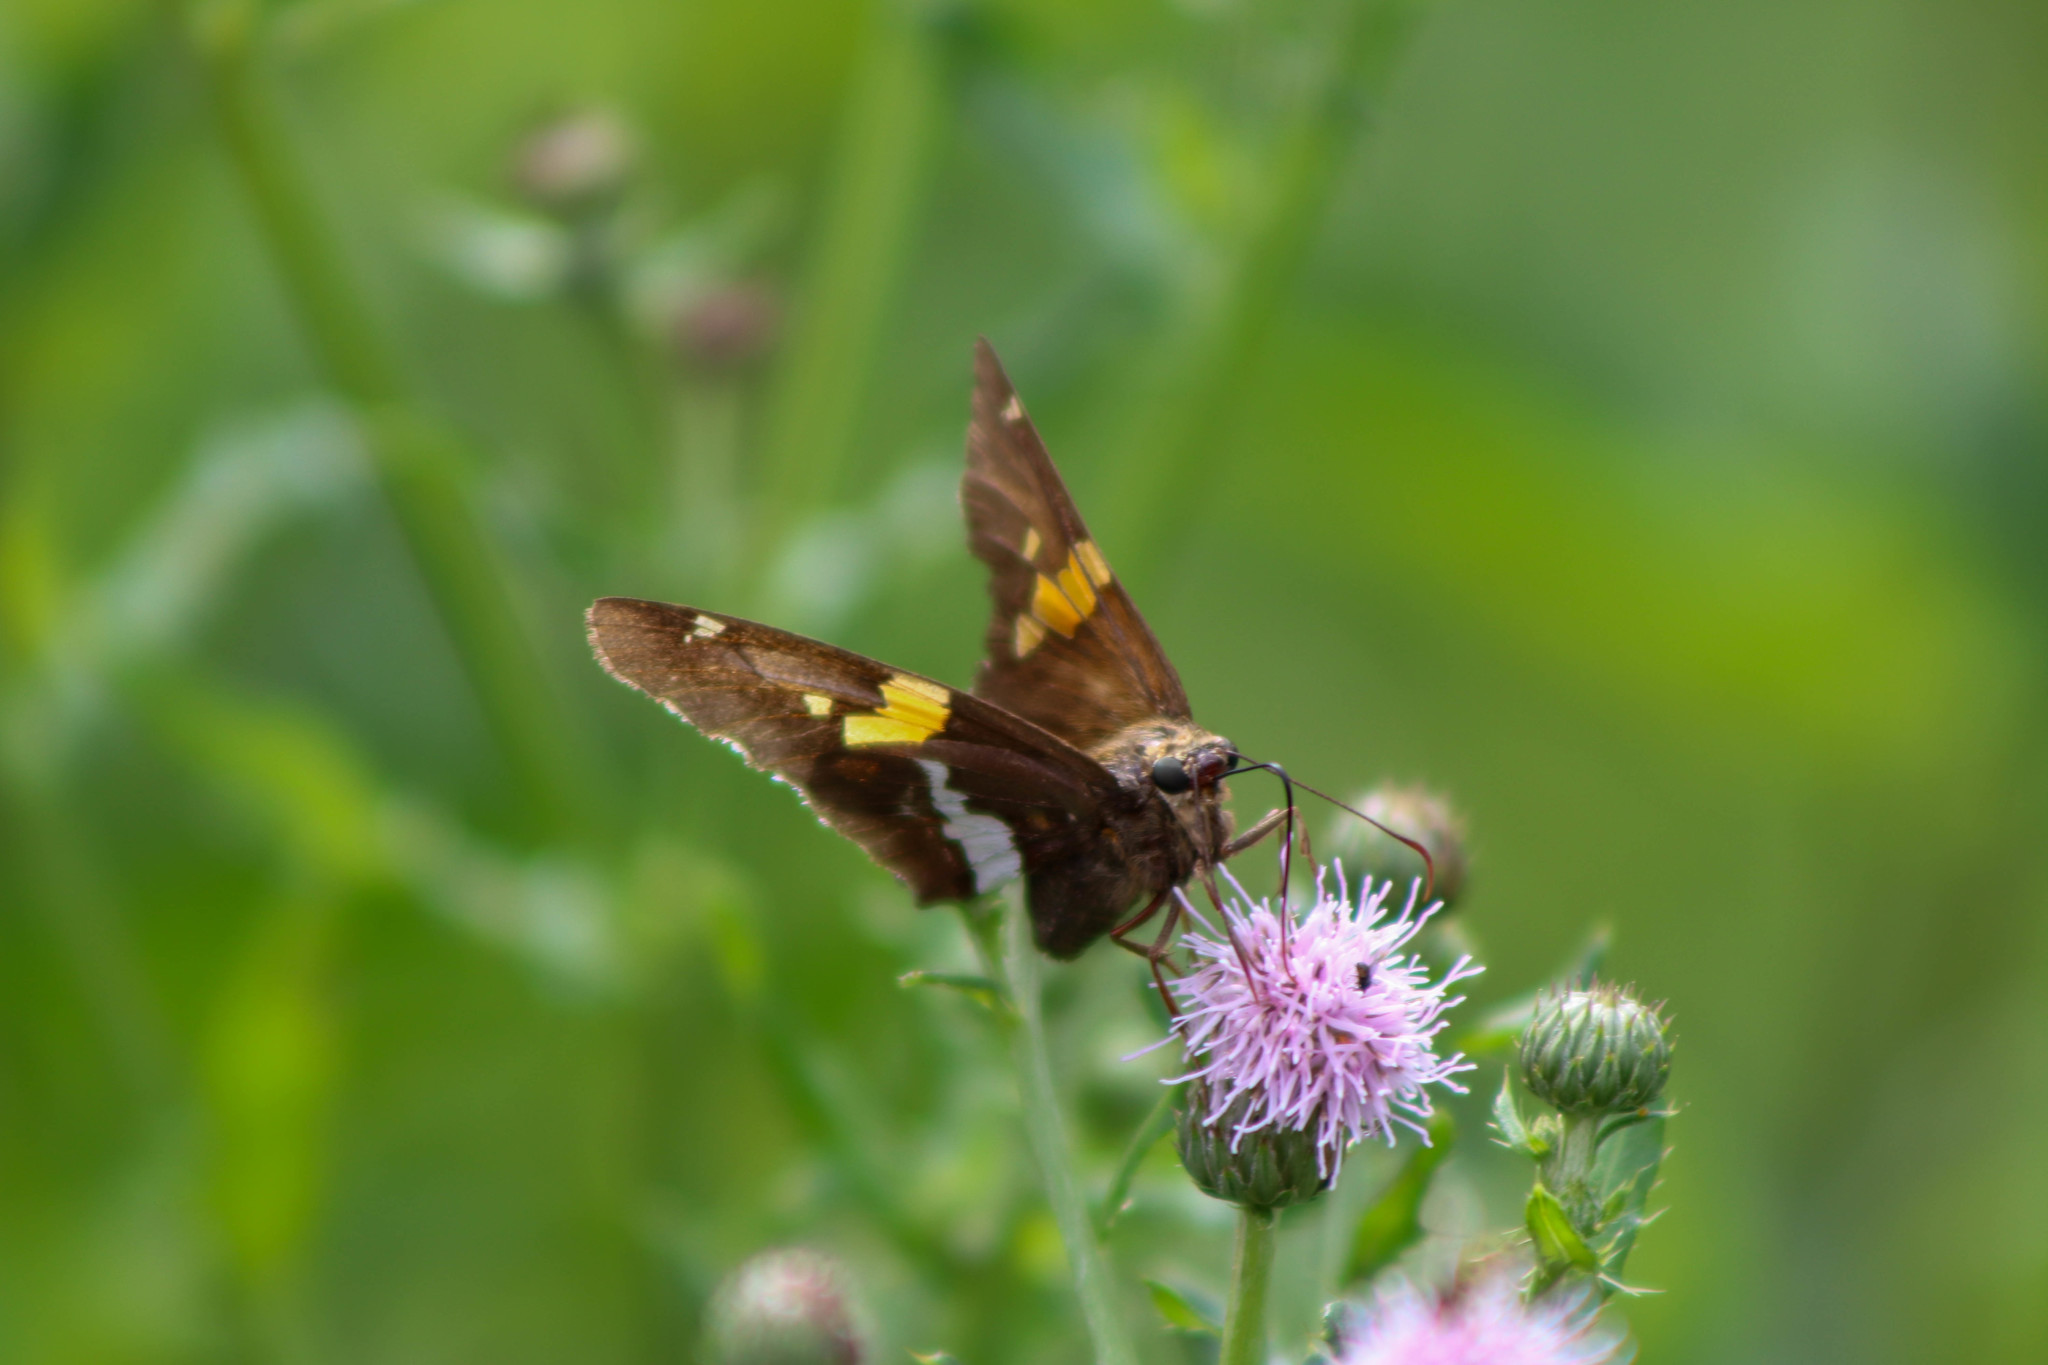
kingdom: Animalia
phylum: Arthropoda
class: Insecta
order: Lepidoptera
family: Hesperiidae
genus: Epargyreus
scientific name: Epargyreus clarus
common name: Silver-spotted skipper
